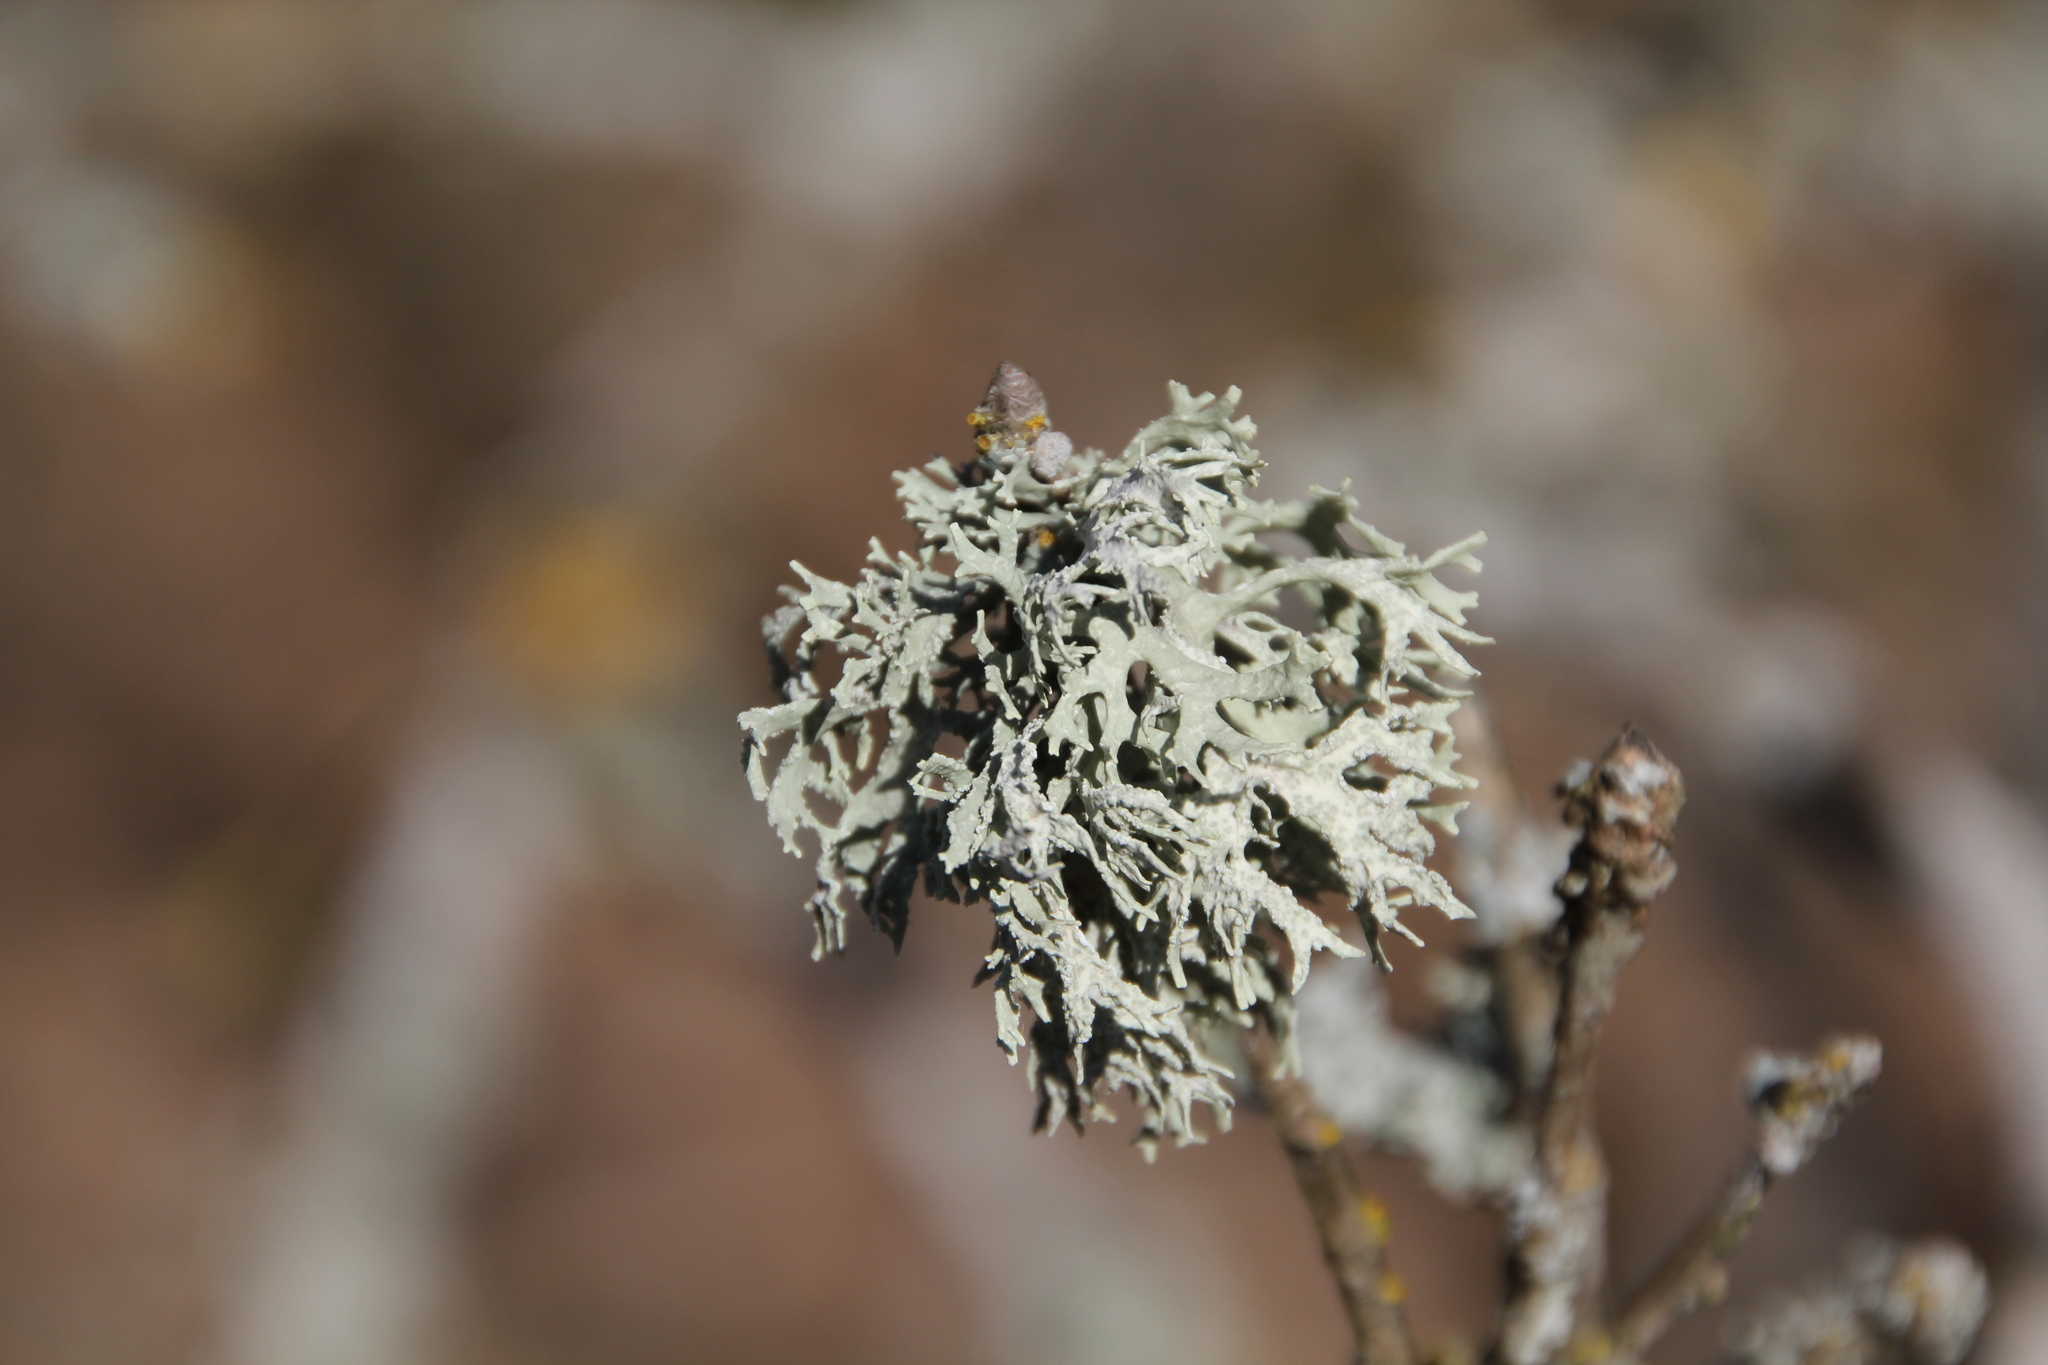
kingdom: Fungi
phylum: Ascomycota
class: Lecanoromycetes
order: Lecanorales
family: Parmeliaceae
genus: Evernia
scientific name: Evernia prunastri
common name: Oak moss
